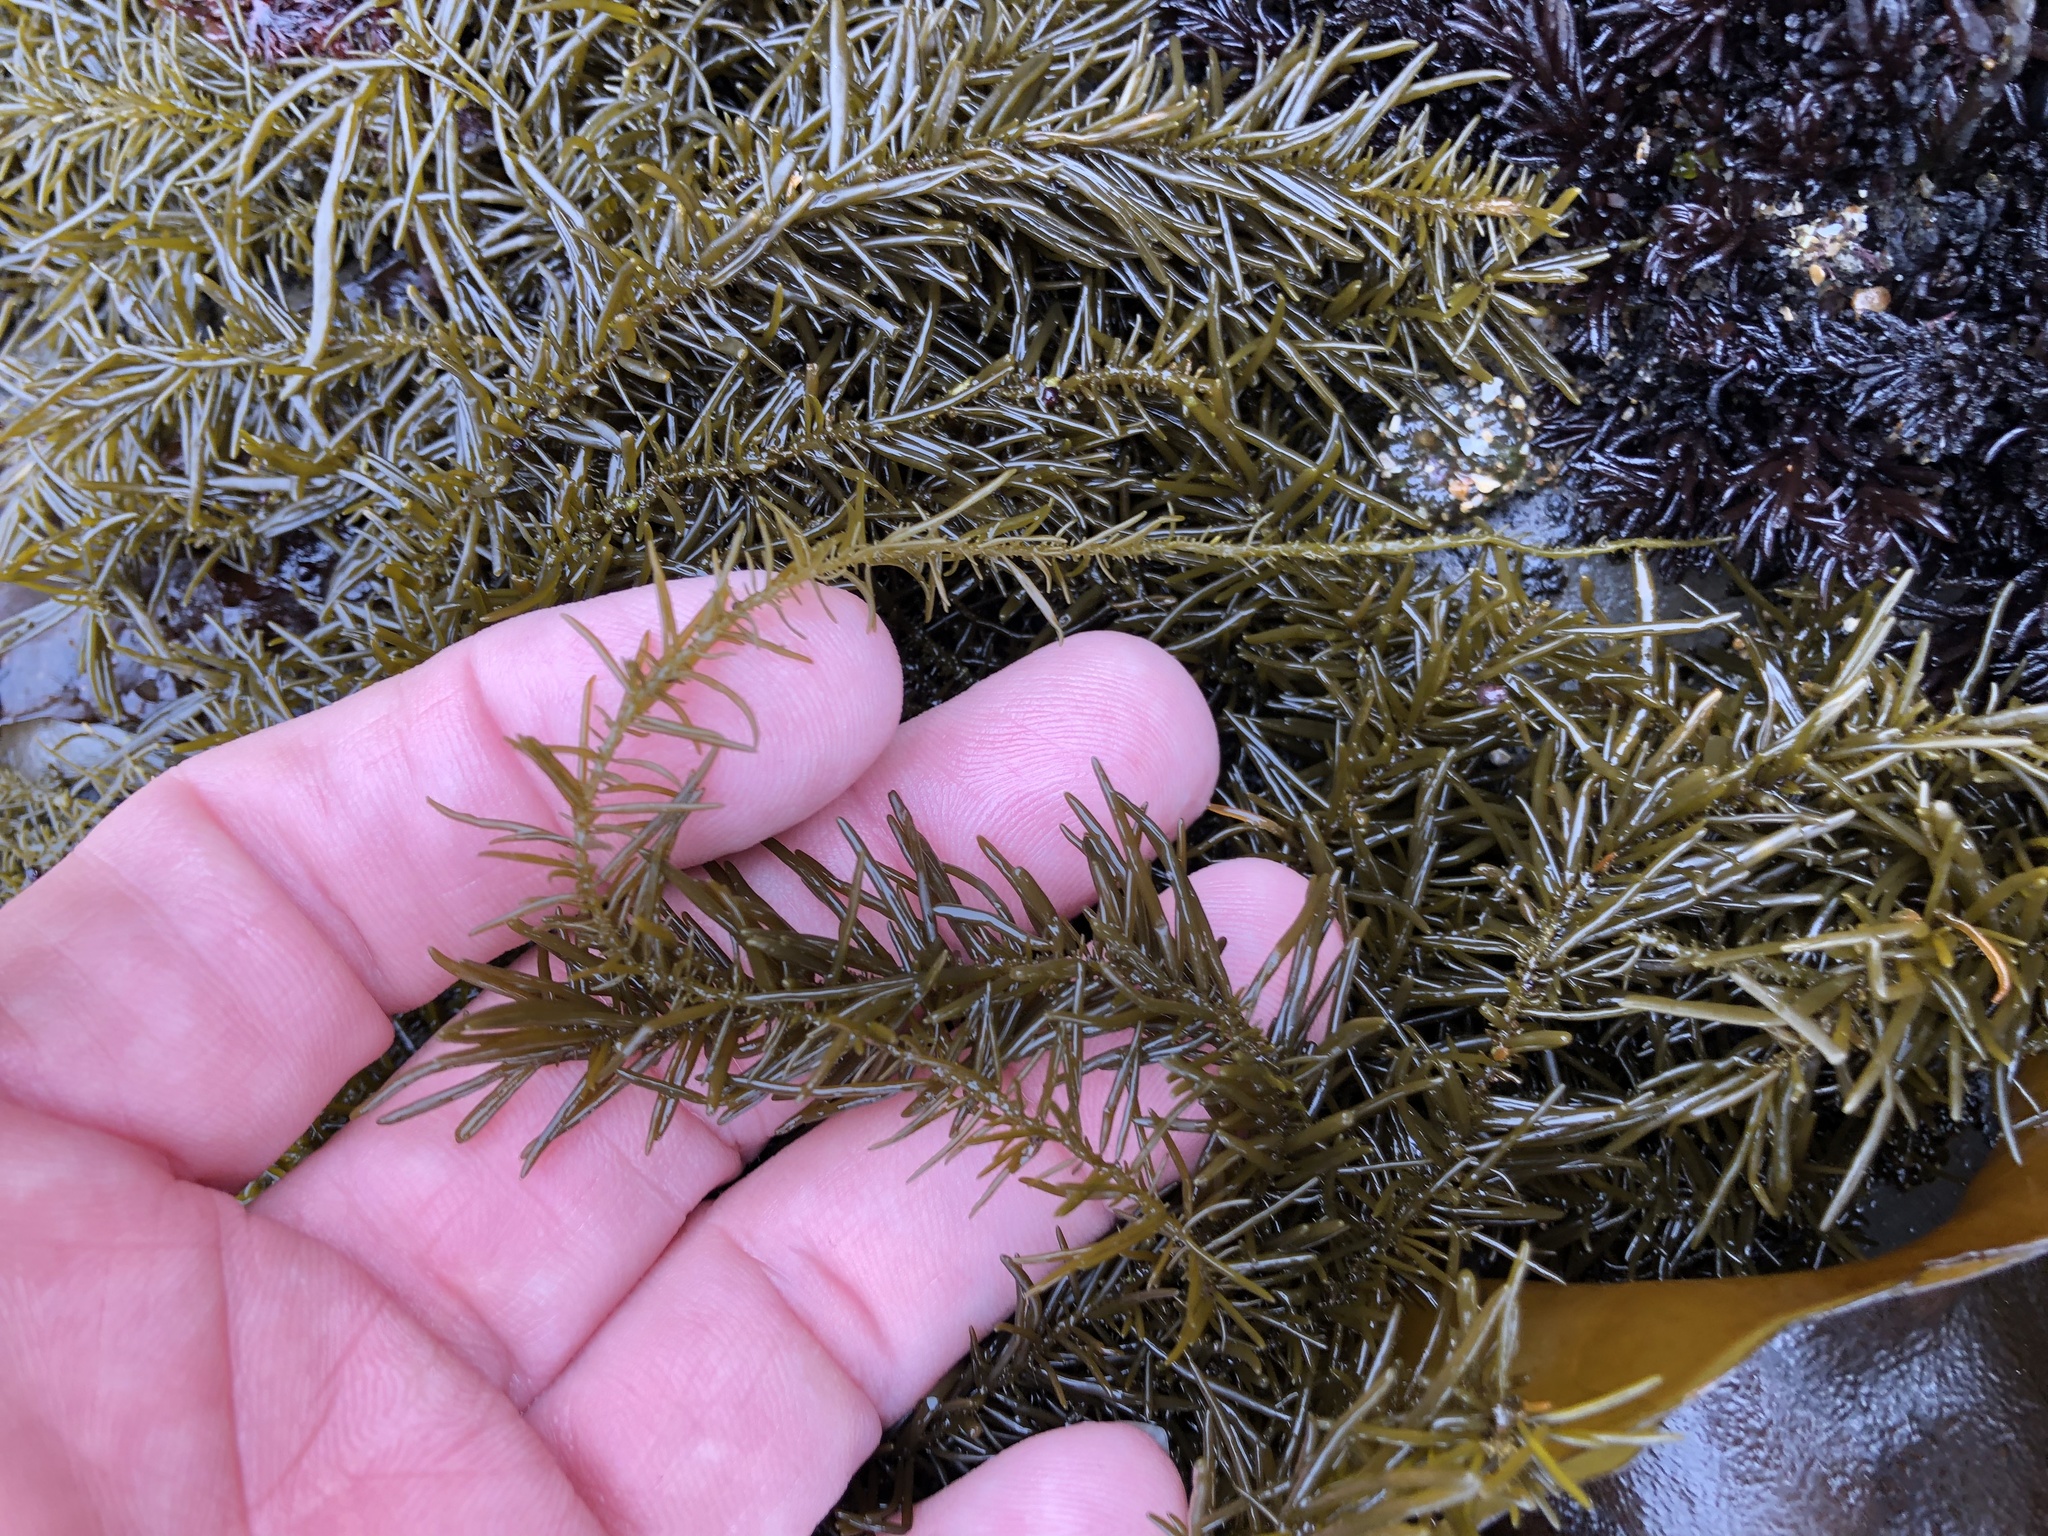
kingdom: Chromista
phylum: Ochrophyta
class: Phaeophyceae
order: Scytosiphonales
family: Scytosiphonaceae
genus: Analipus
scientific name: Analipus japonicus
